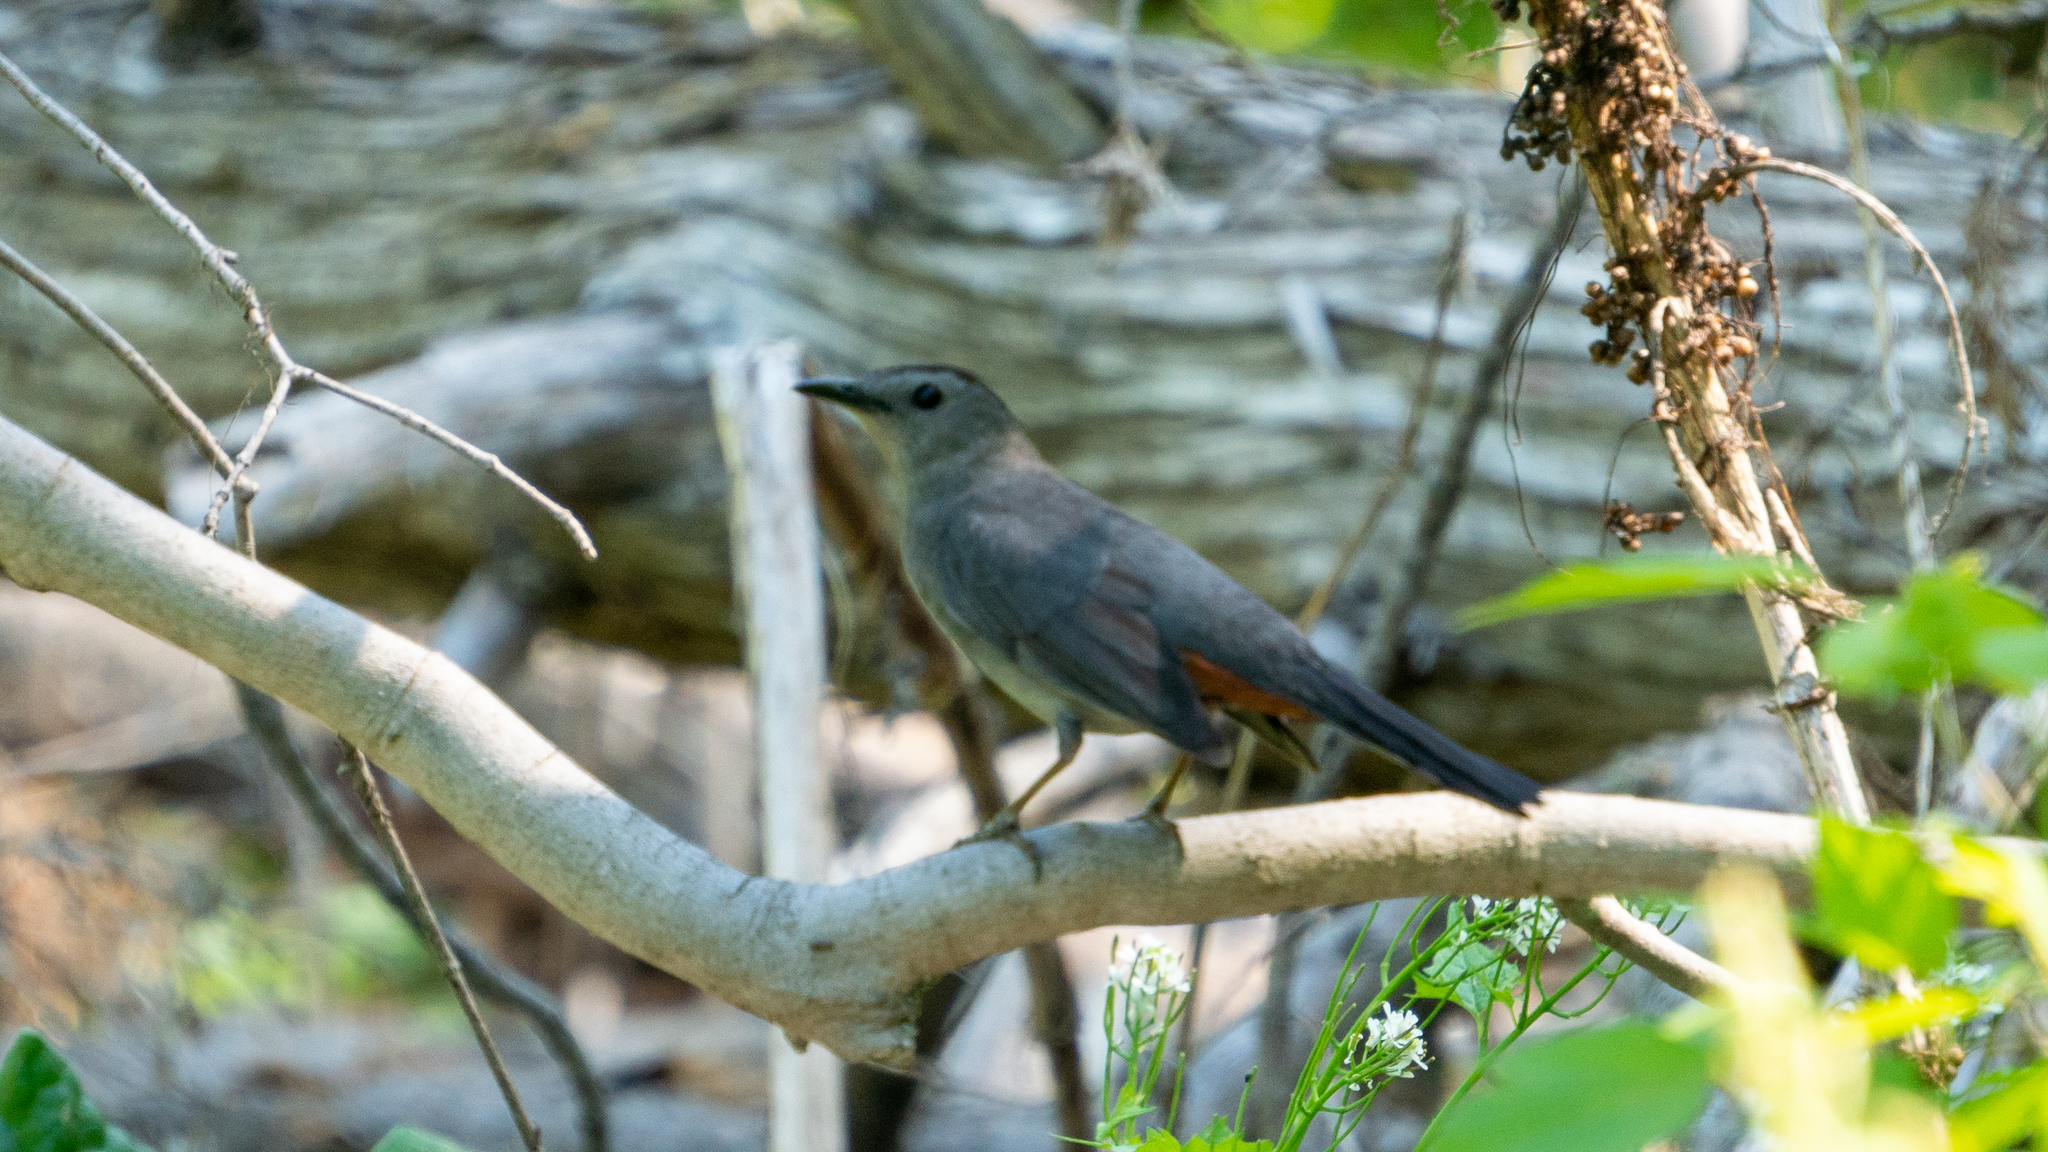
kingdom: Animalia
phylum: Chordata
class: Aves
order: Passeriformes
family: Mimidae
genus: Dumetella
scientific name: Dumetella carolinensis
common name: Gray catbird
